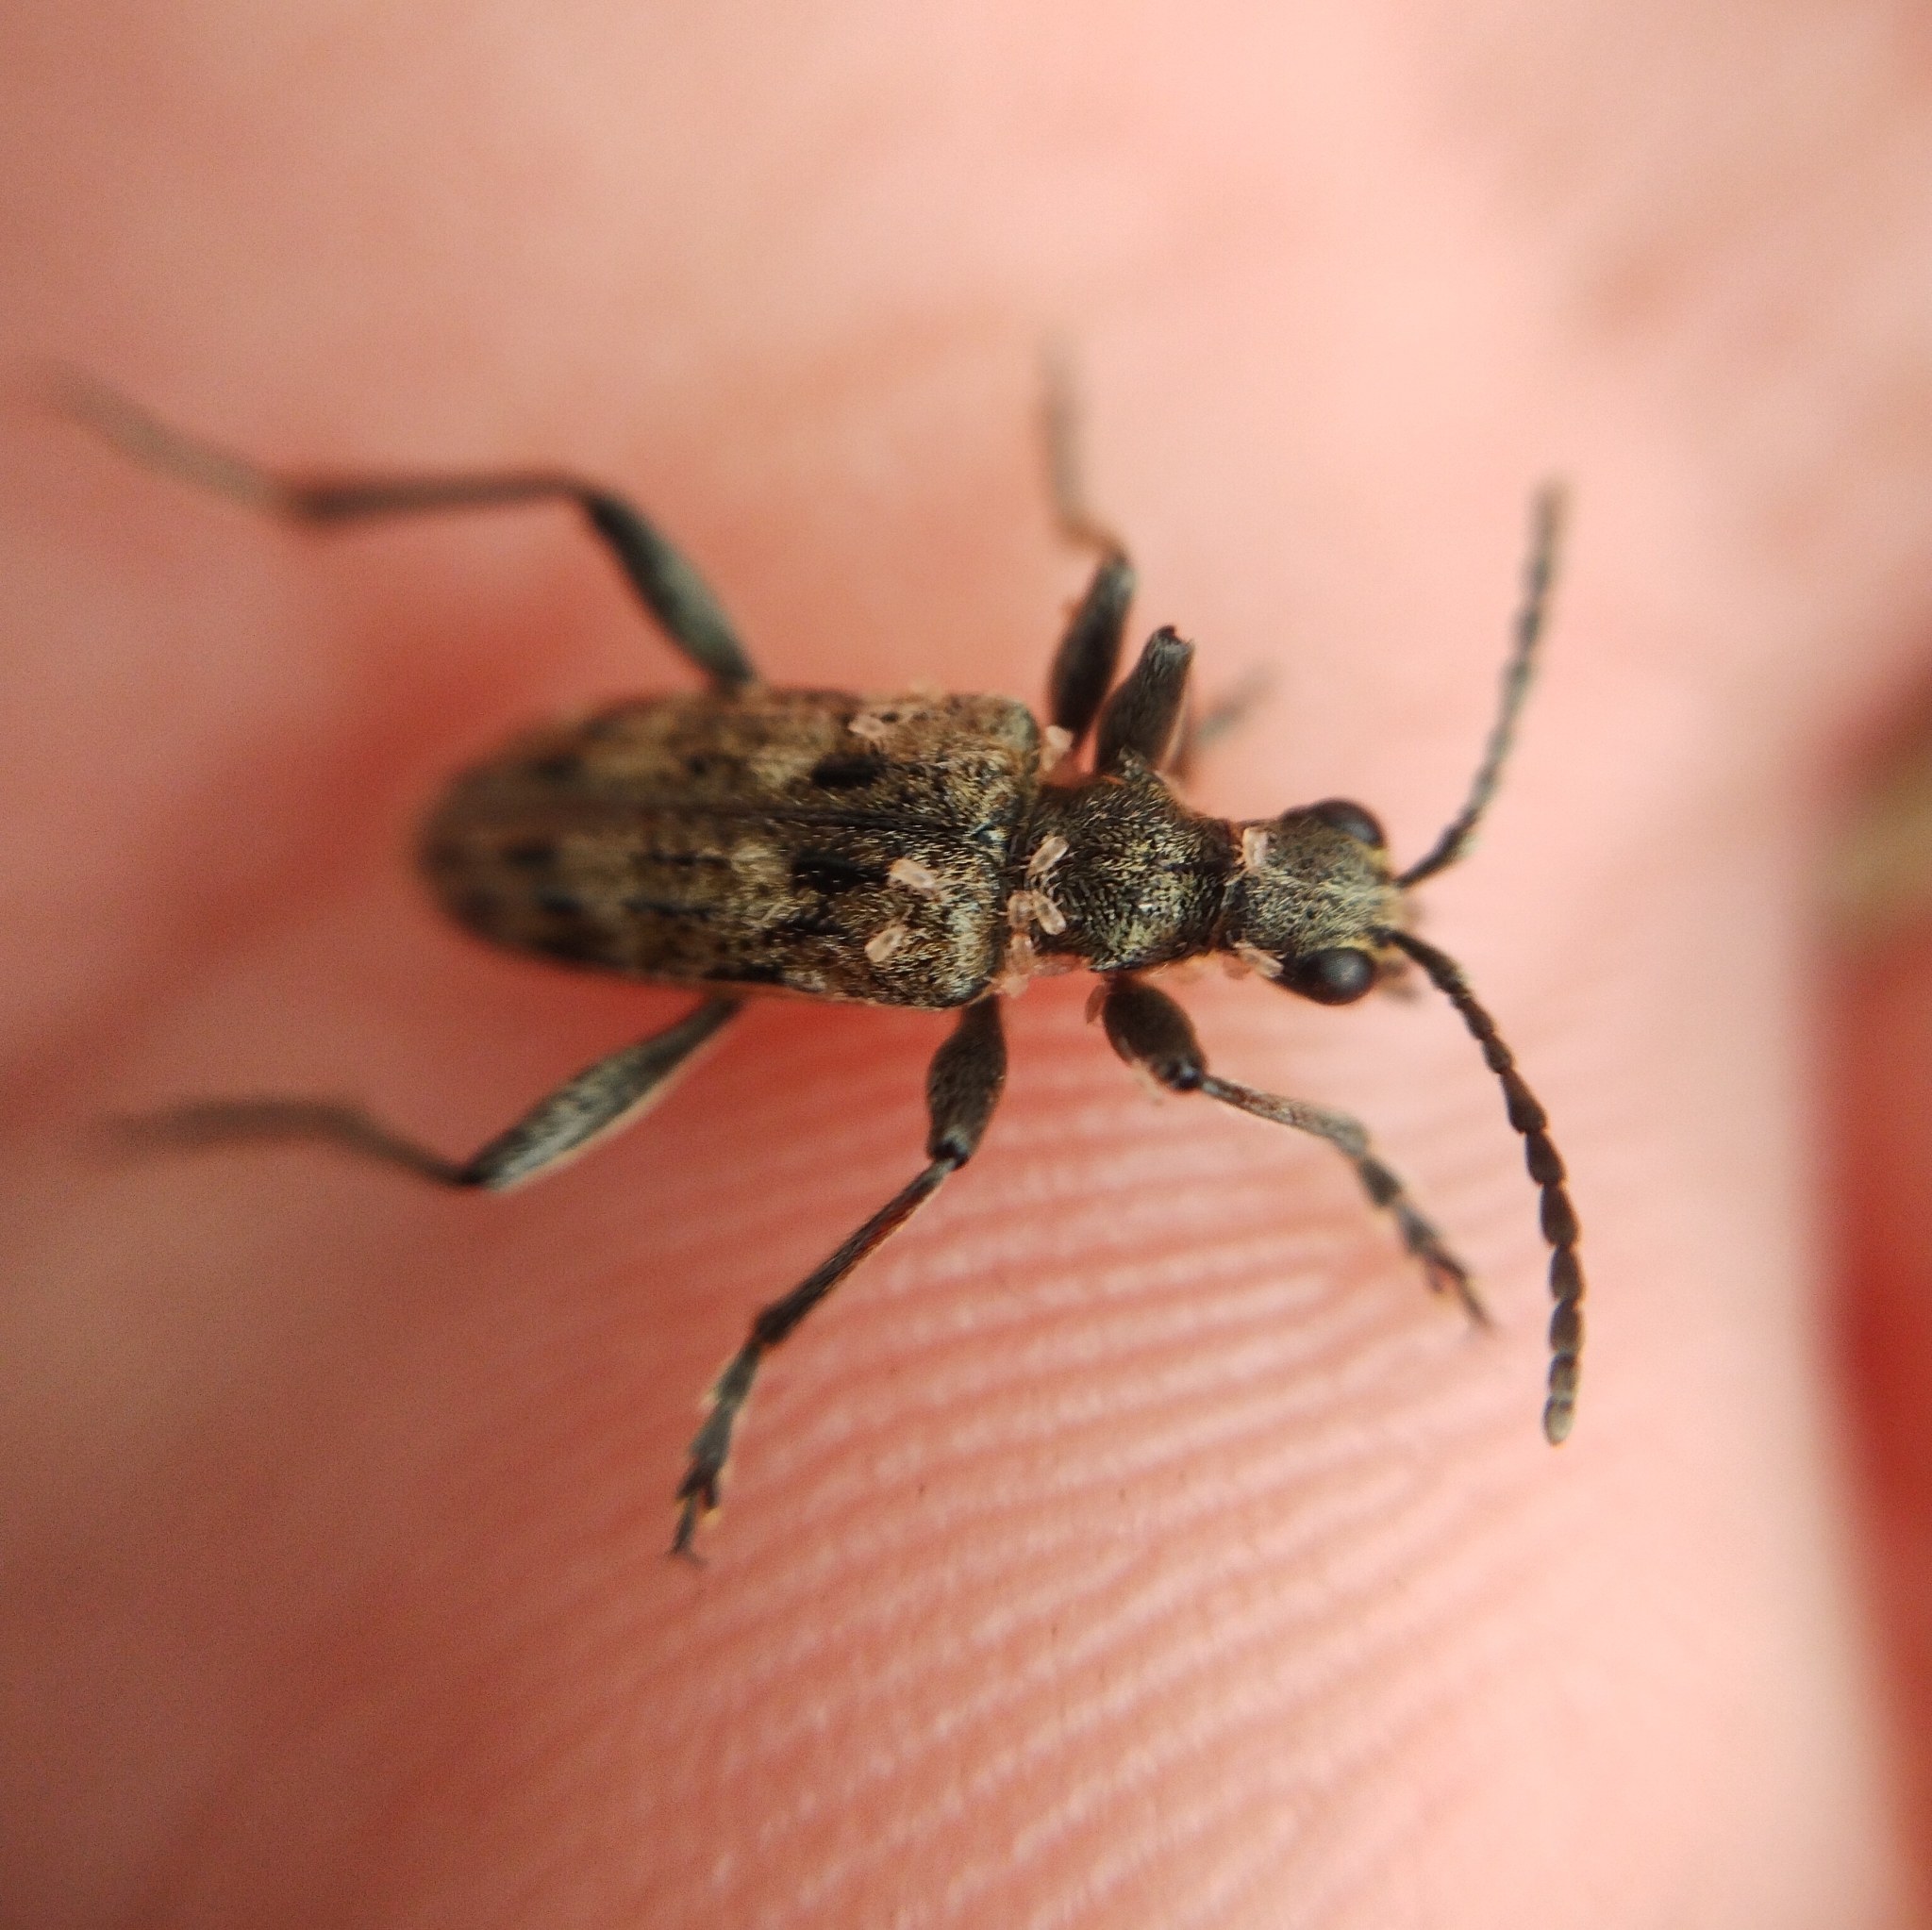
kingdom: Animalia
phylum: Arthropoda
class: Insecta
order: Coleoptera
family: Cerambycidae
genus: Rhagium
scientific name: Rhagium inquisitor
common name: Ribbed pine borer
